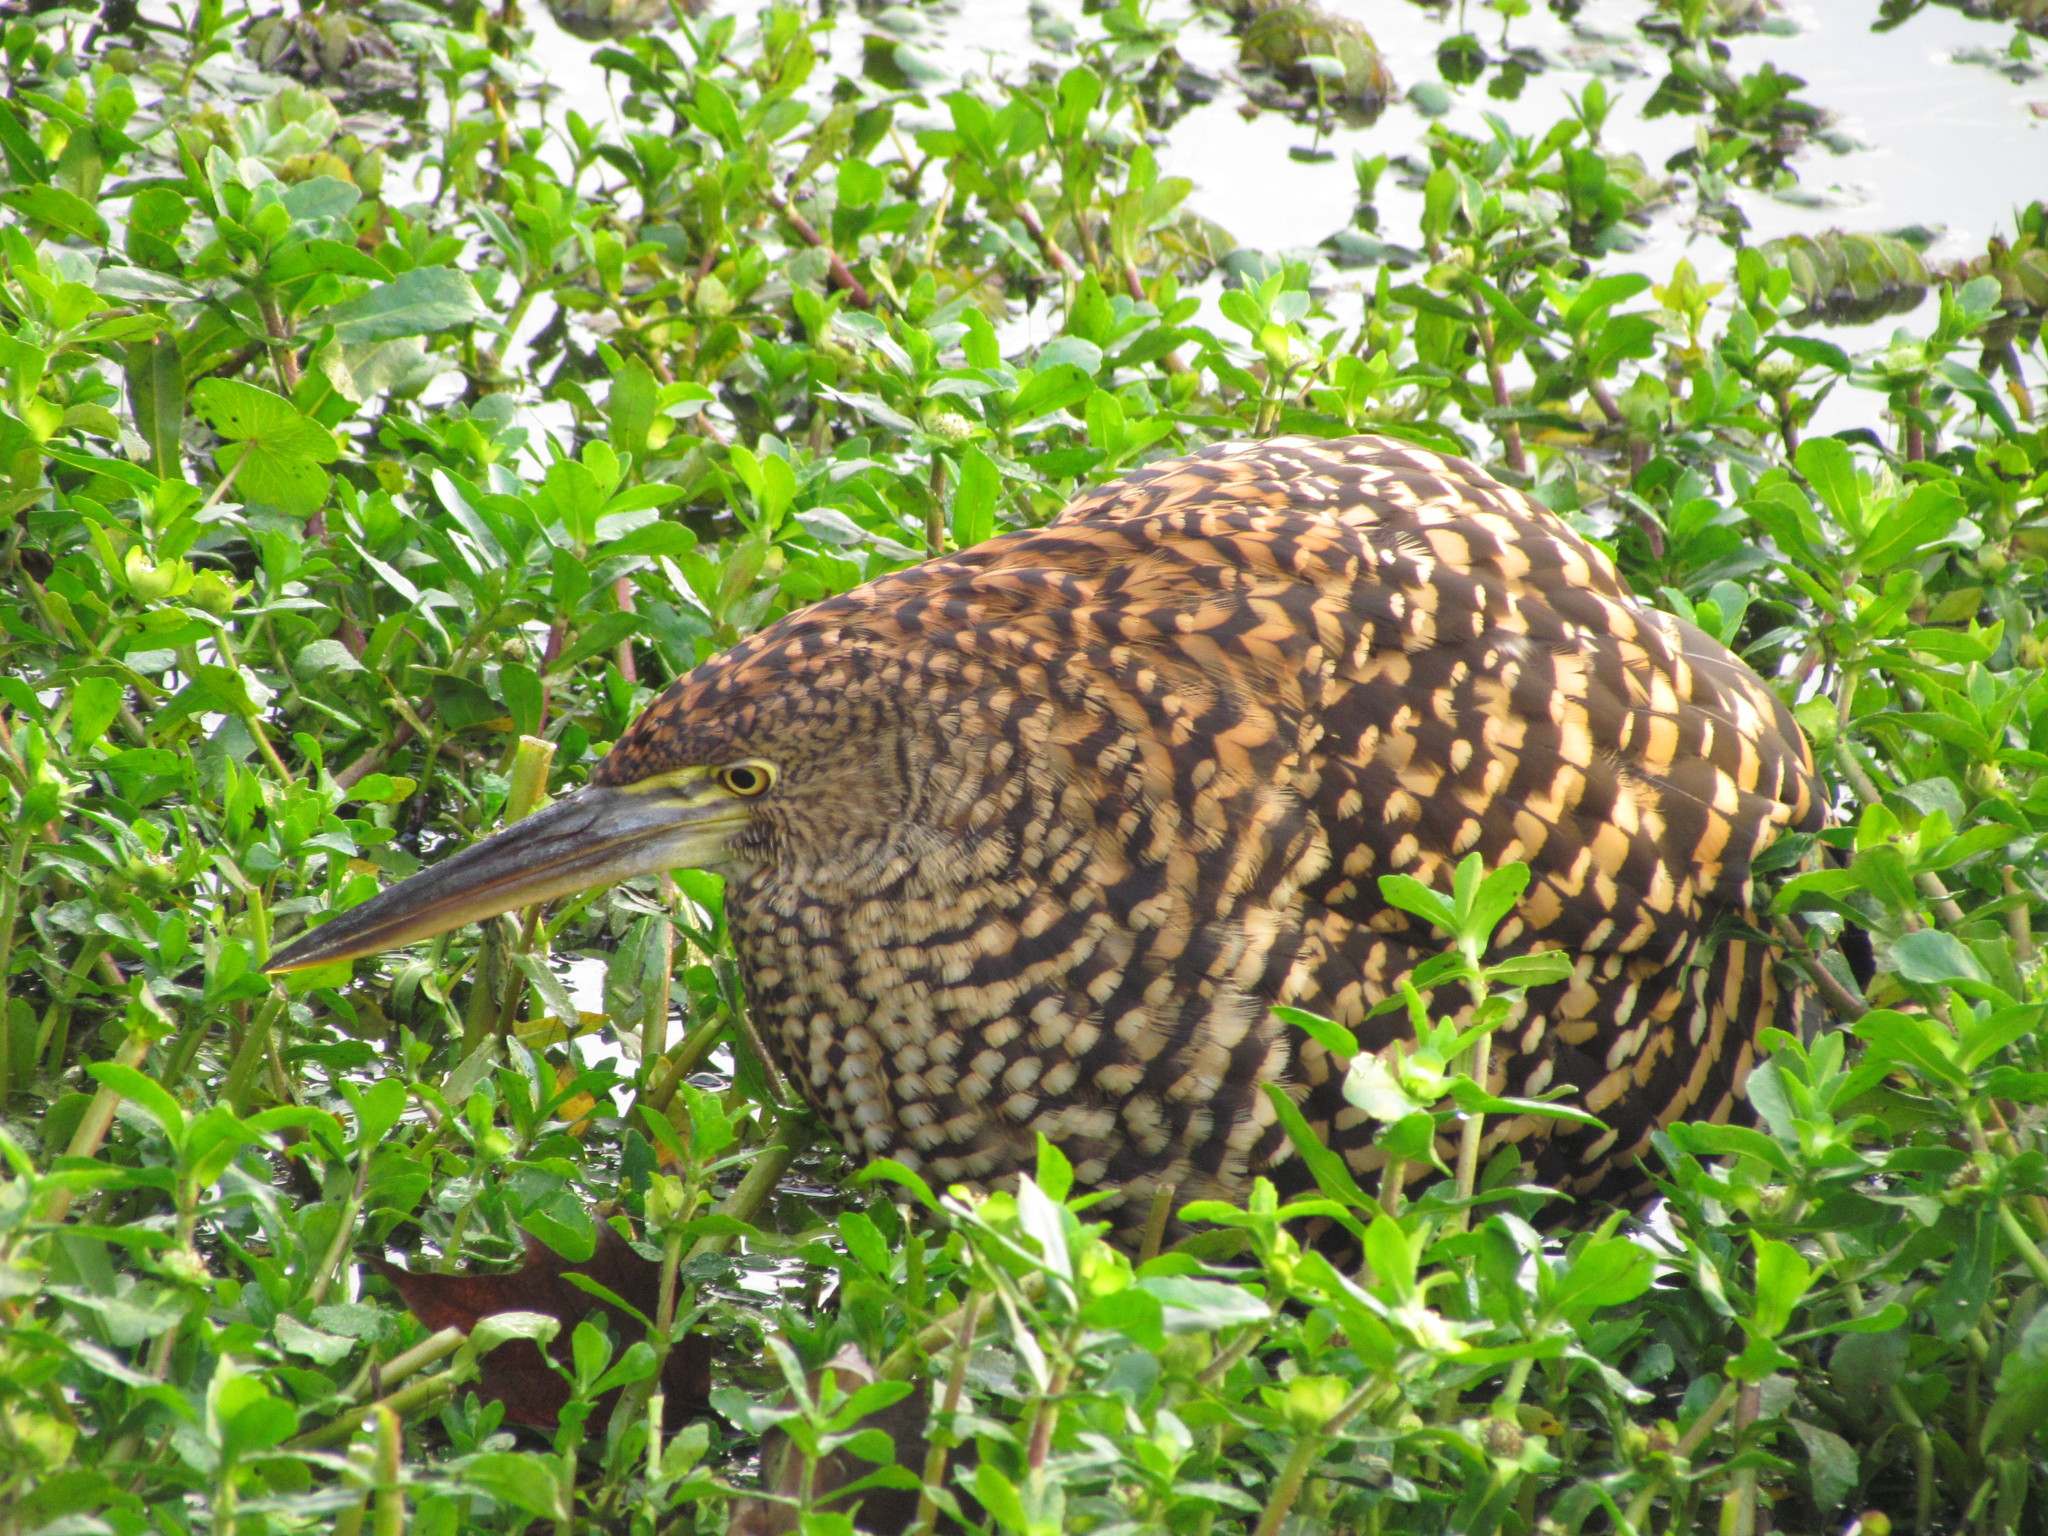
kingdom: Animalia
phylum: Chordata
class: Aves
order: Pelecaniformes
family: Ardeidae
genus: Tigrisoma
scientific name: Tigrisoma lineatum
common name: Rufescent tiger-heron
